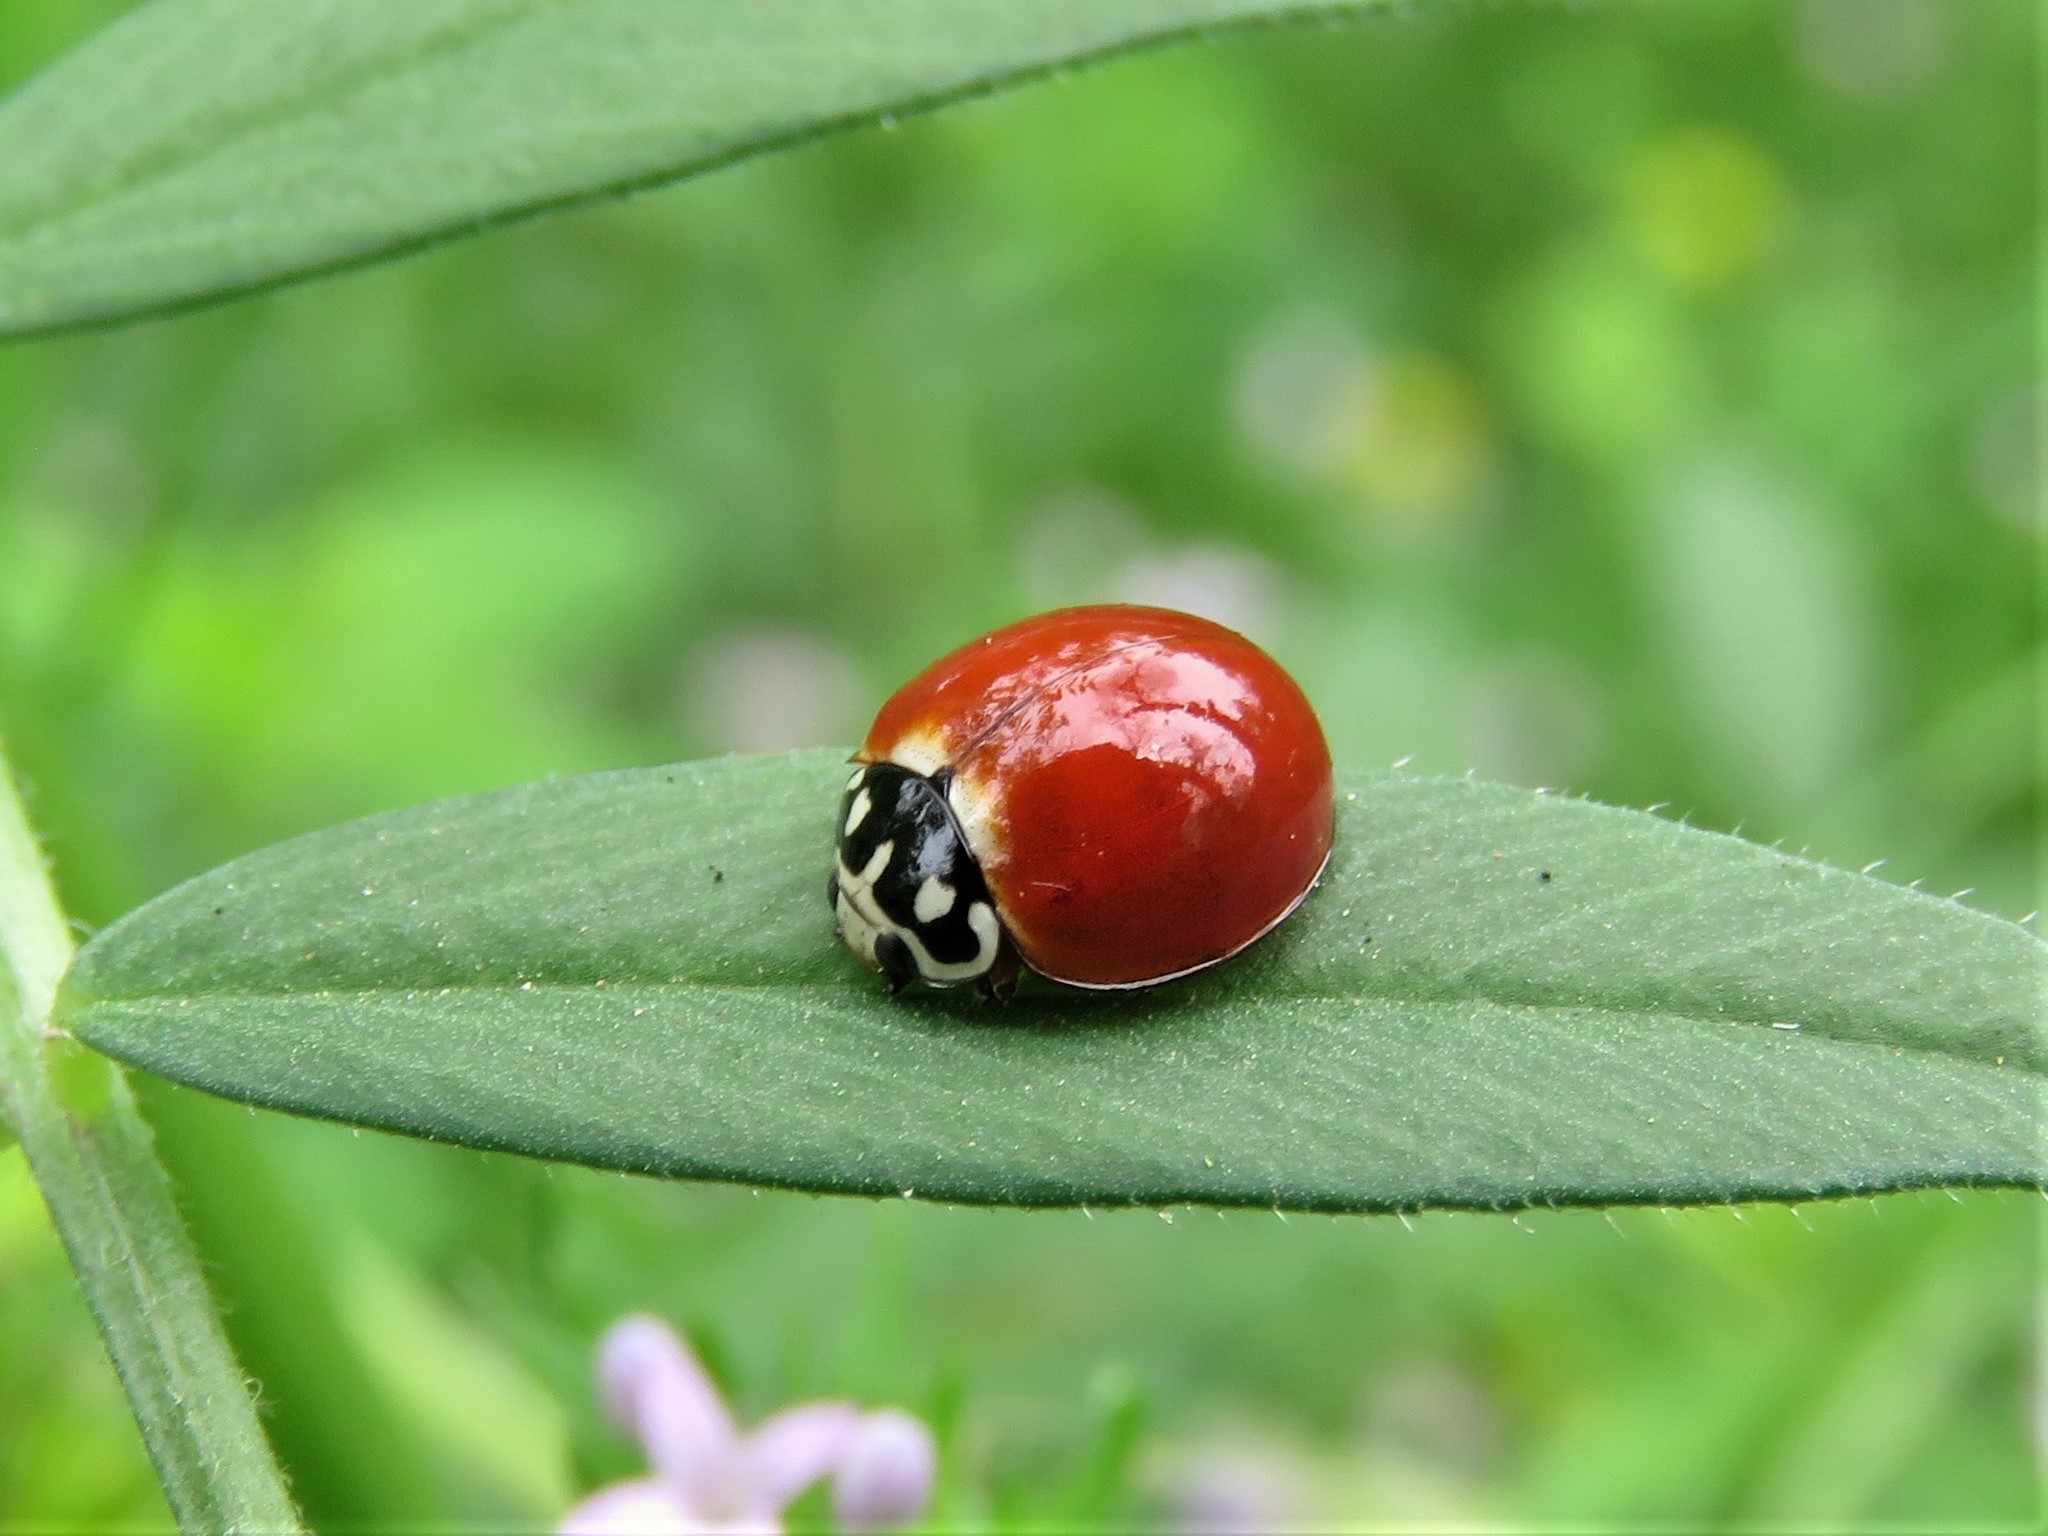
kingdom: Animalia
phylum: Arthropoda
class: Insecta
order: Coleoptera
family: Coccinellidae
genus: Cycloneda
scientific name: Cycloneda sanguinea
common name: Ladybird beetle
